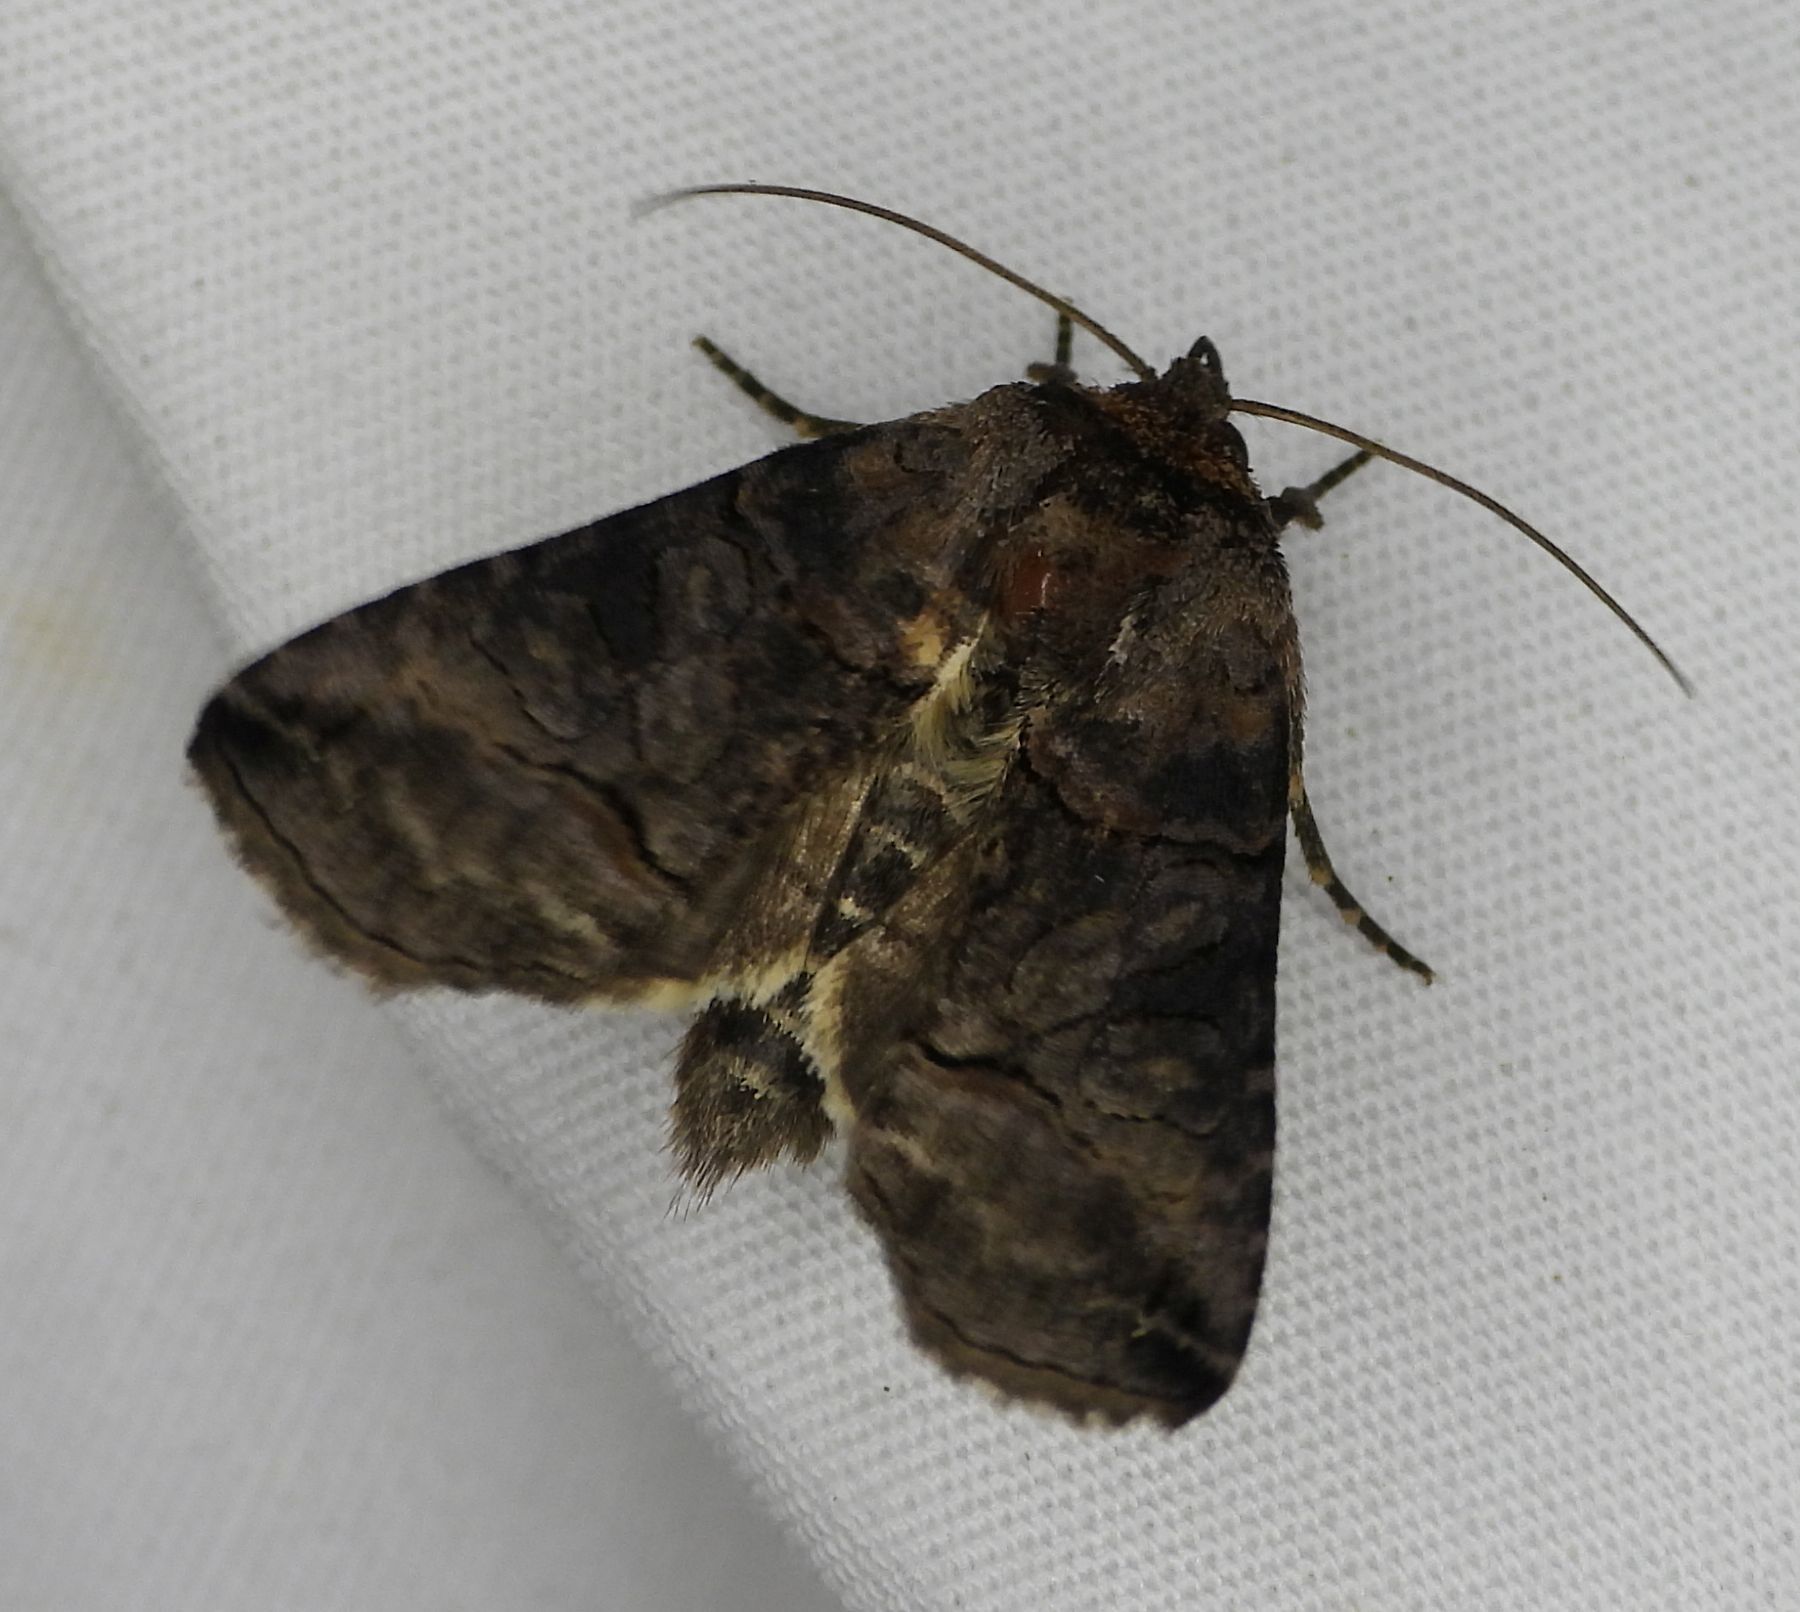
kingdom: Animalia
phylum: Arthropoda
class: Insecta
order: Lepidoptera
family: Noctuidae
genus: Abrostola
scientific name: Abrostola urentis
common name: Spectacled nettle moth
